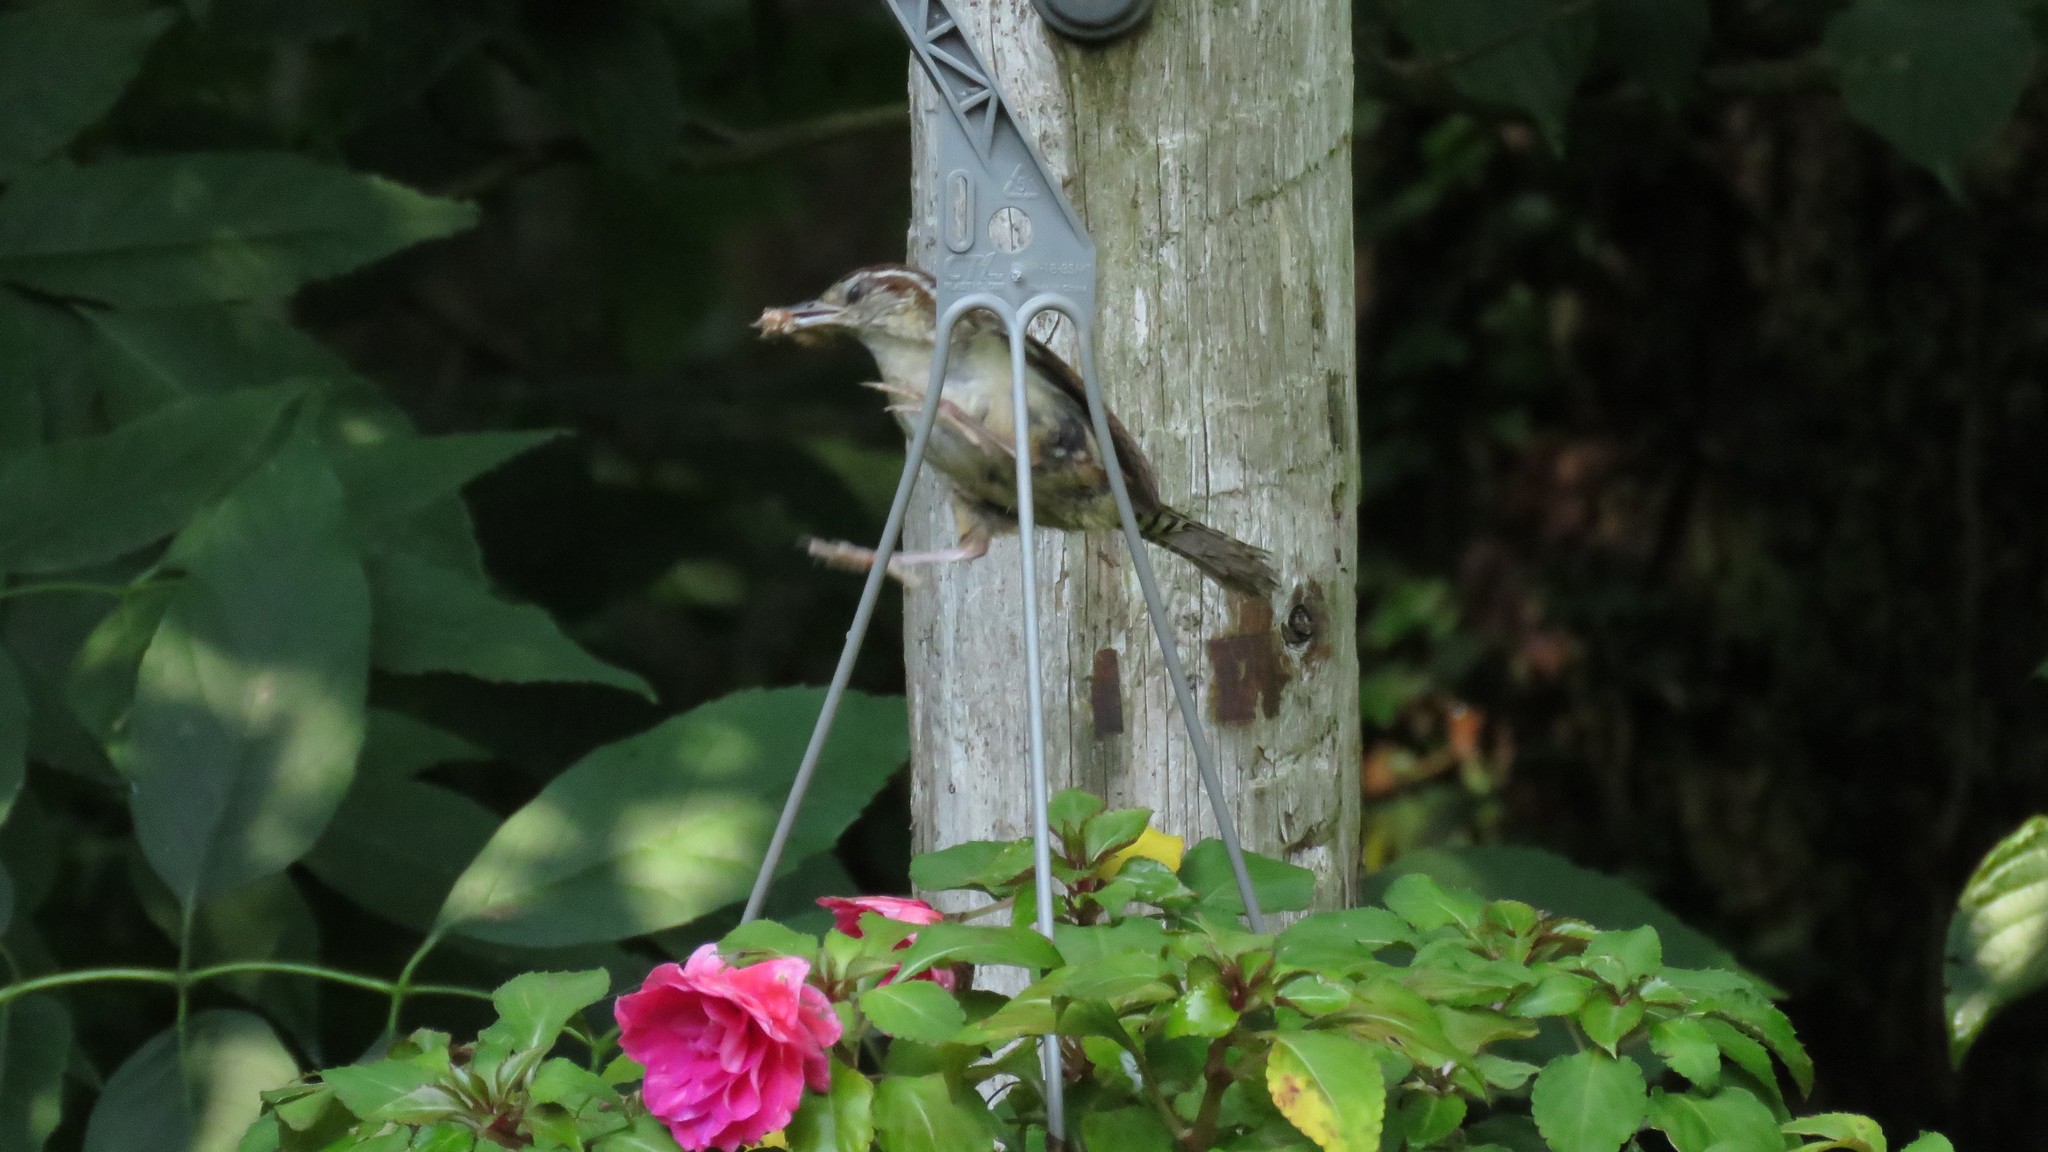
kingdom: Animalia
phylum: Chordata
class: Aves
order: Passeriformes
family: Troglodytidae
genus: Thryothorus
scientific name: Thryothorus ludovicianus
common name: Carolina wren
